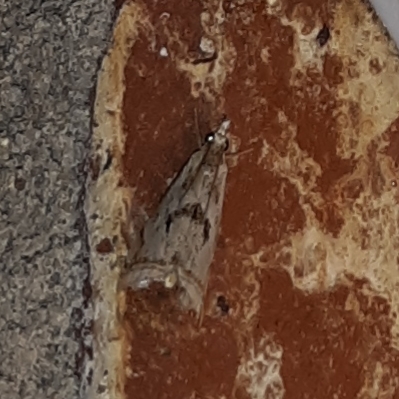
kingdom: Animalia
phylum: Arthropoda
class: Insecta
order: Lepidoptera
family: Crambidae
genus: Microcrambus
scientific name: Microcrambus elegans
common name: Elegant grass-veneer
